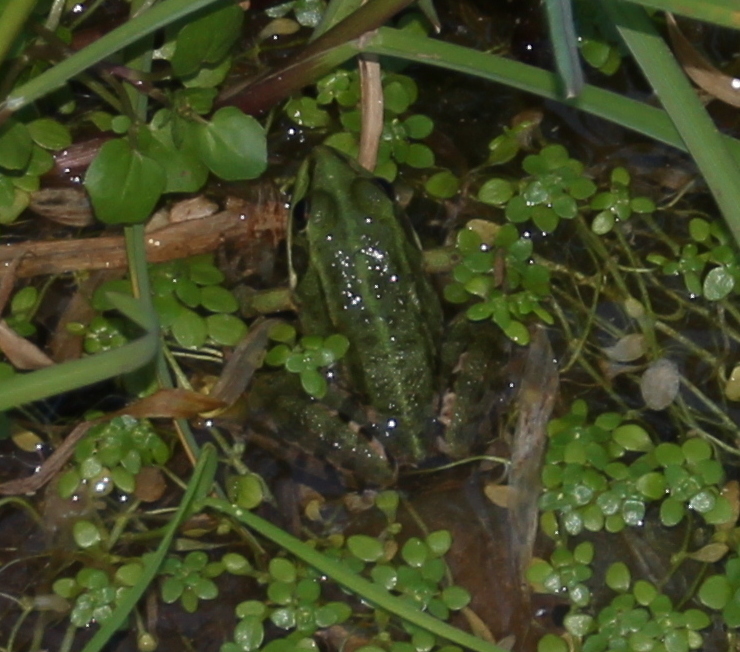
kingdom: Animalia
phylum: Chordata
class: Amphibia
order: Anura
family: Ranidae
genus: Pelophylax
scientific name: Pelophylax perezi
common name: Perez's frog
